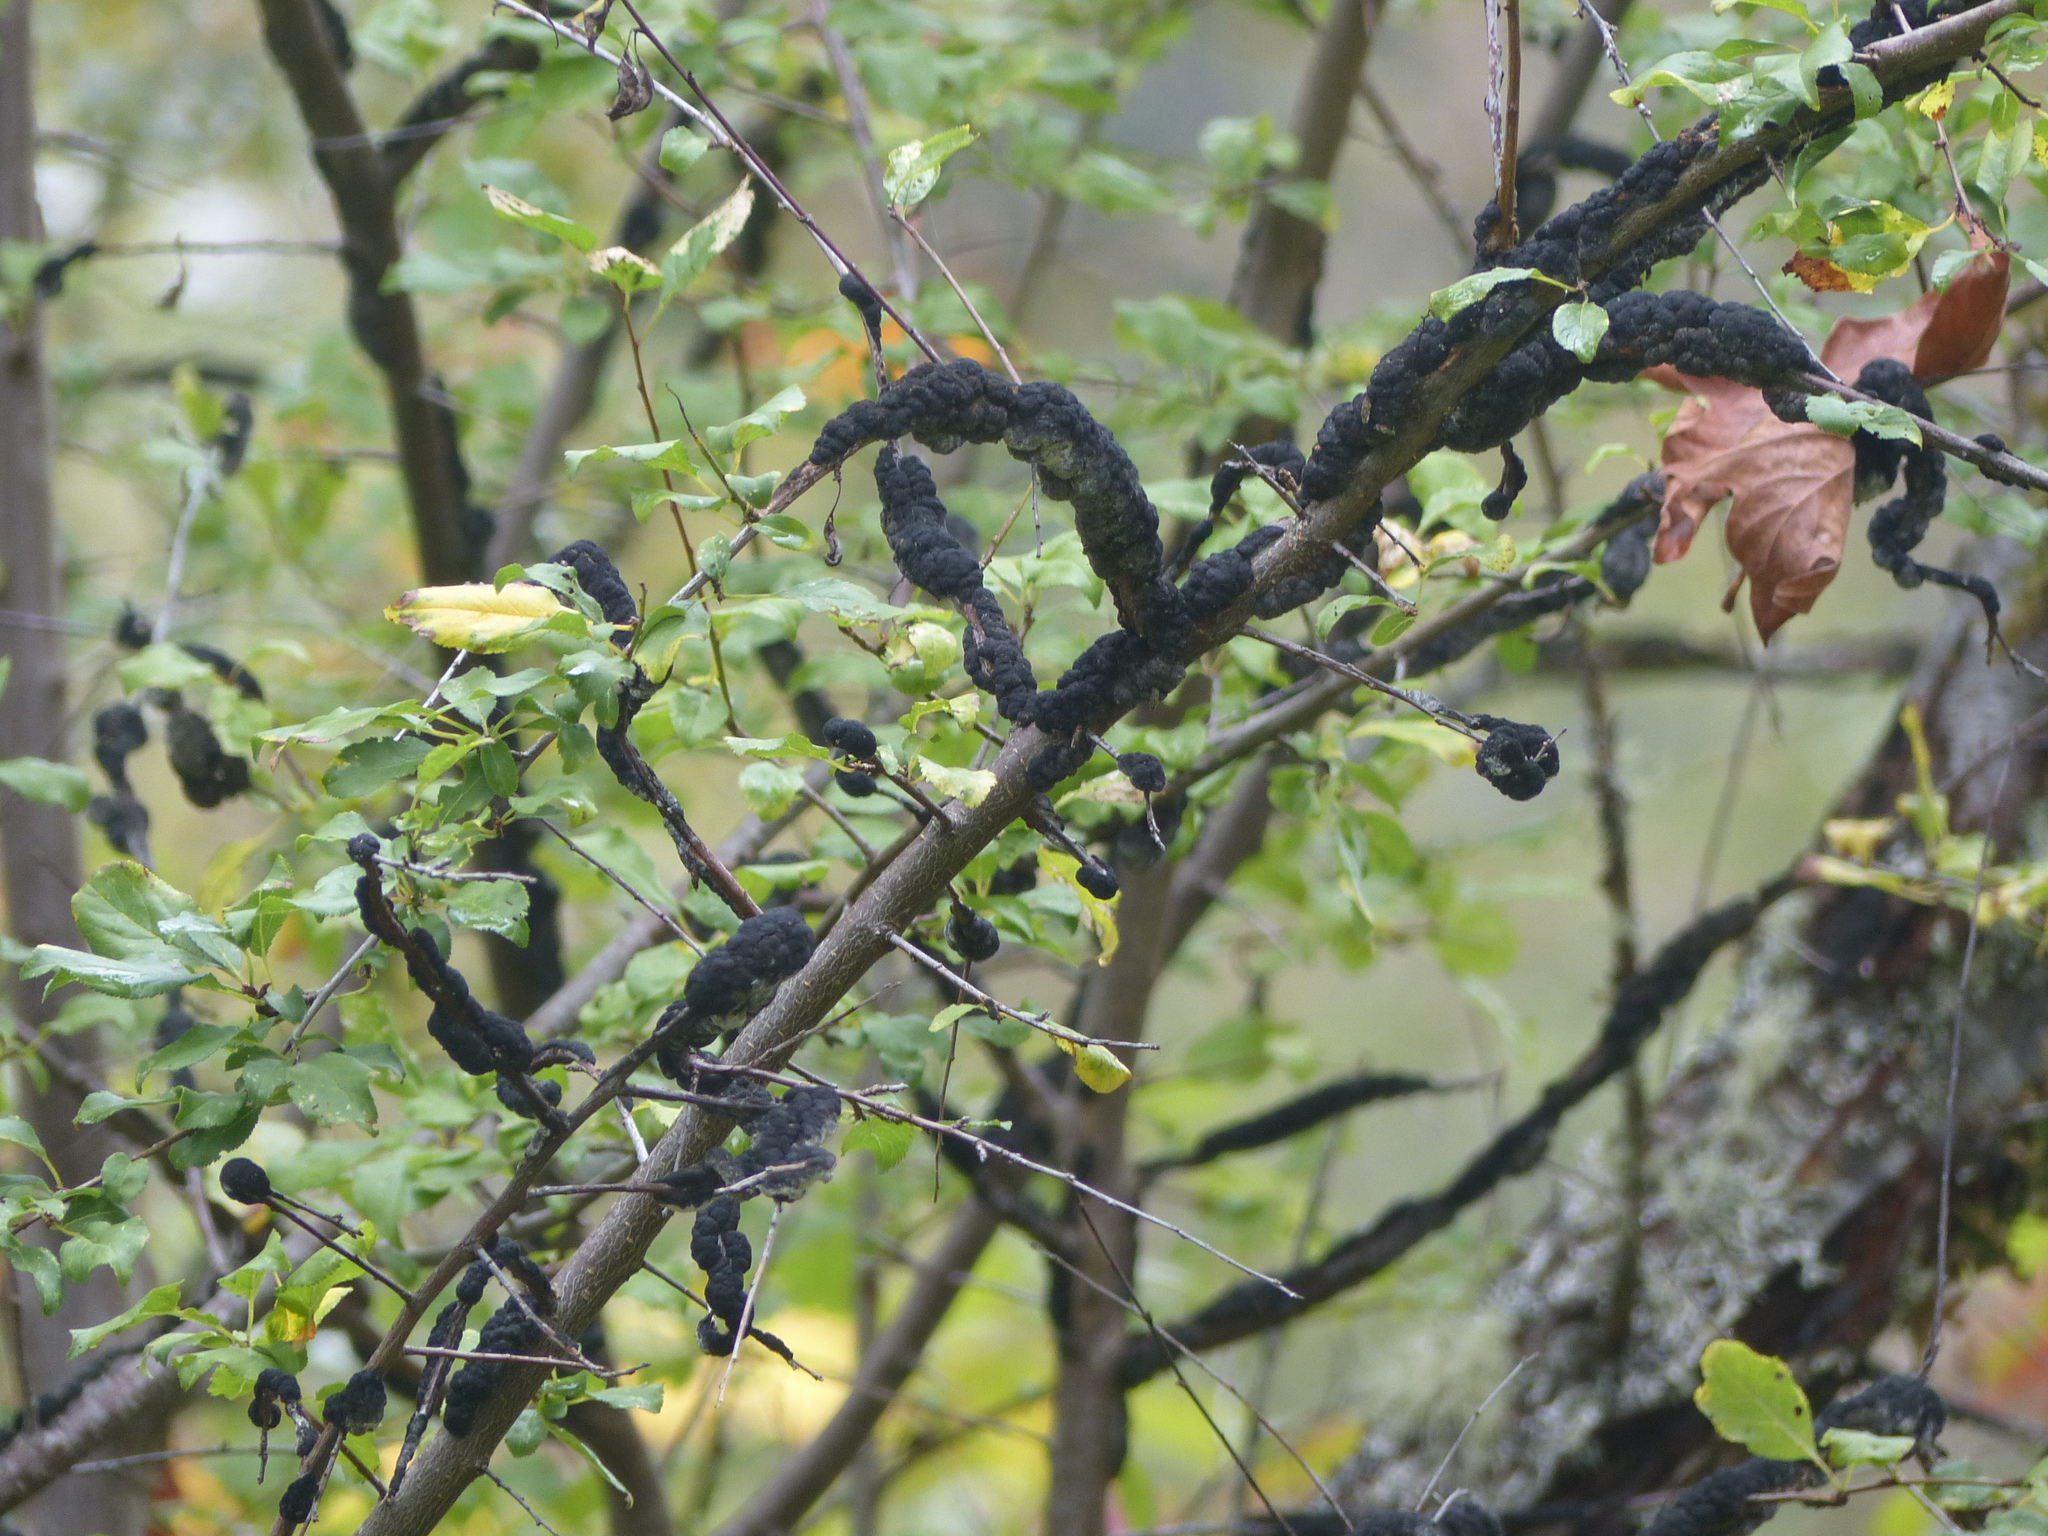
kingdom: Fungi
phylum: Ascomycota
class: Dothideomycetes
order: Venturiales
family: Venturiaceae
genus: Apiosporina
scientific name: Apiosporina morbosa
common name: Black knot
